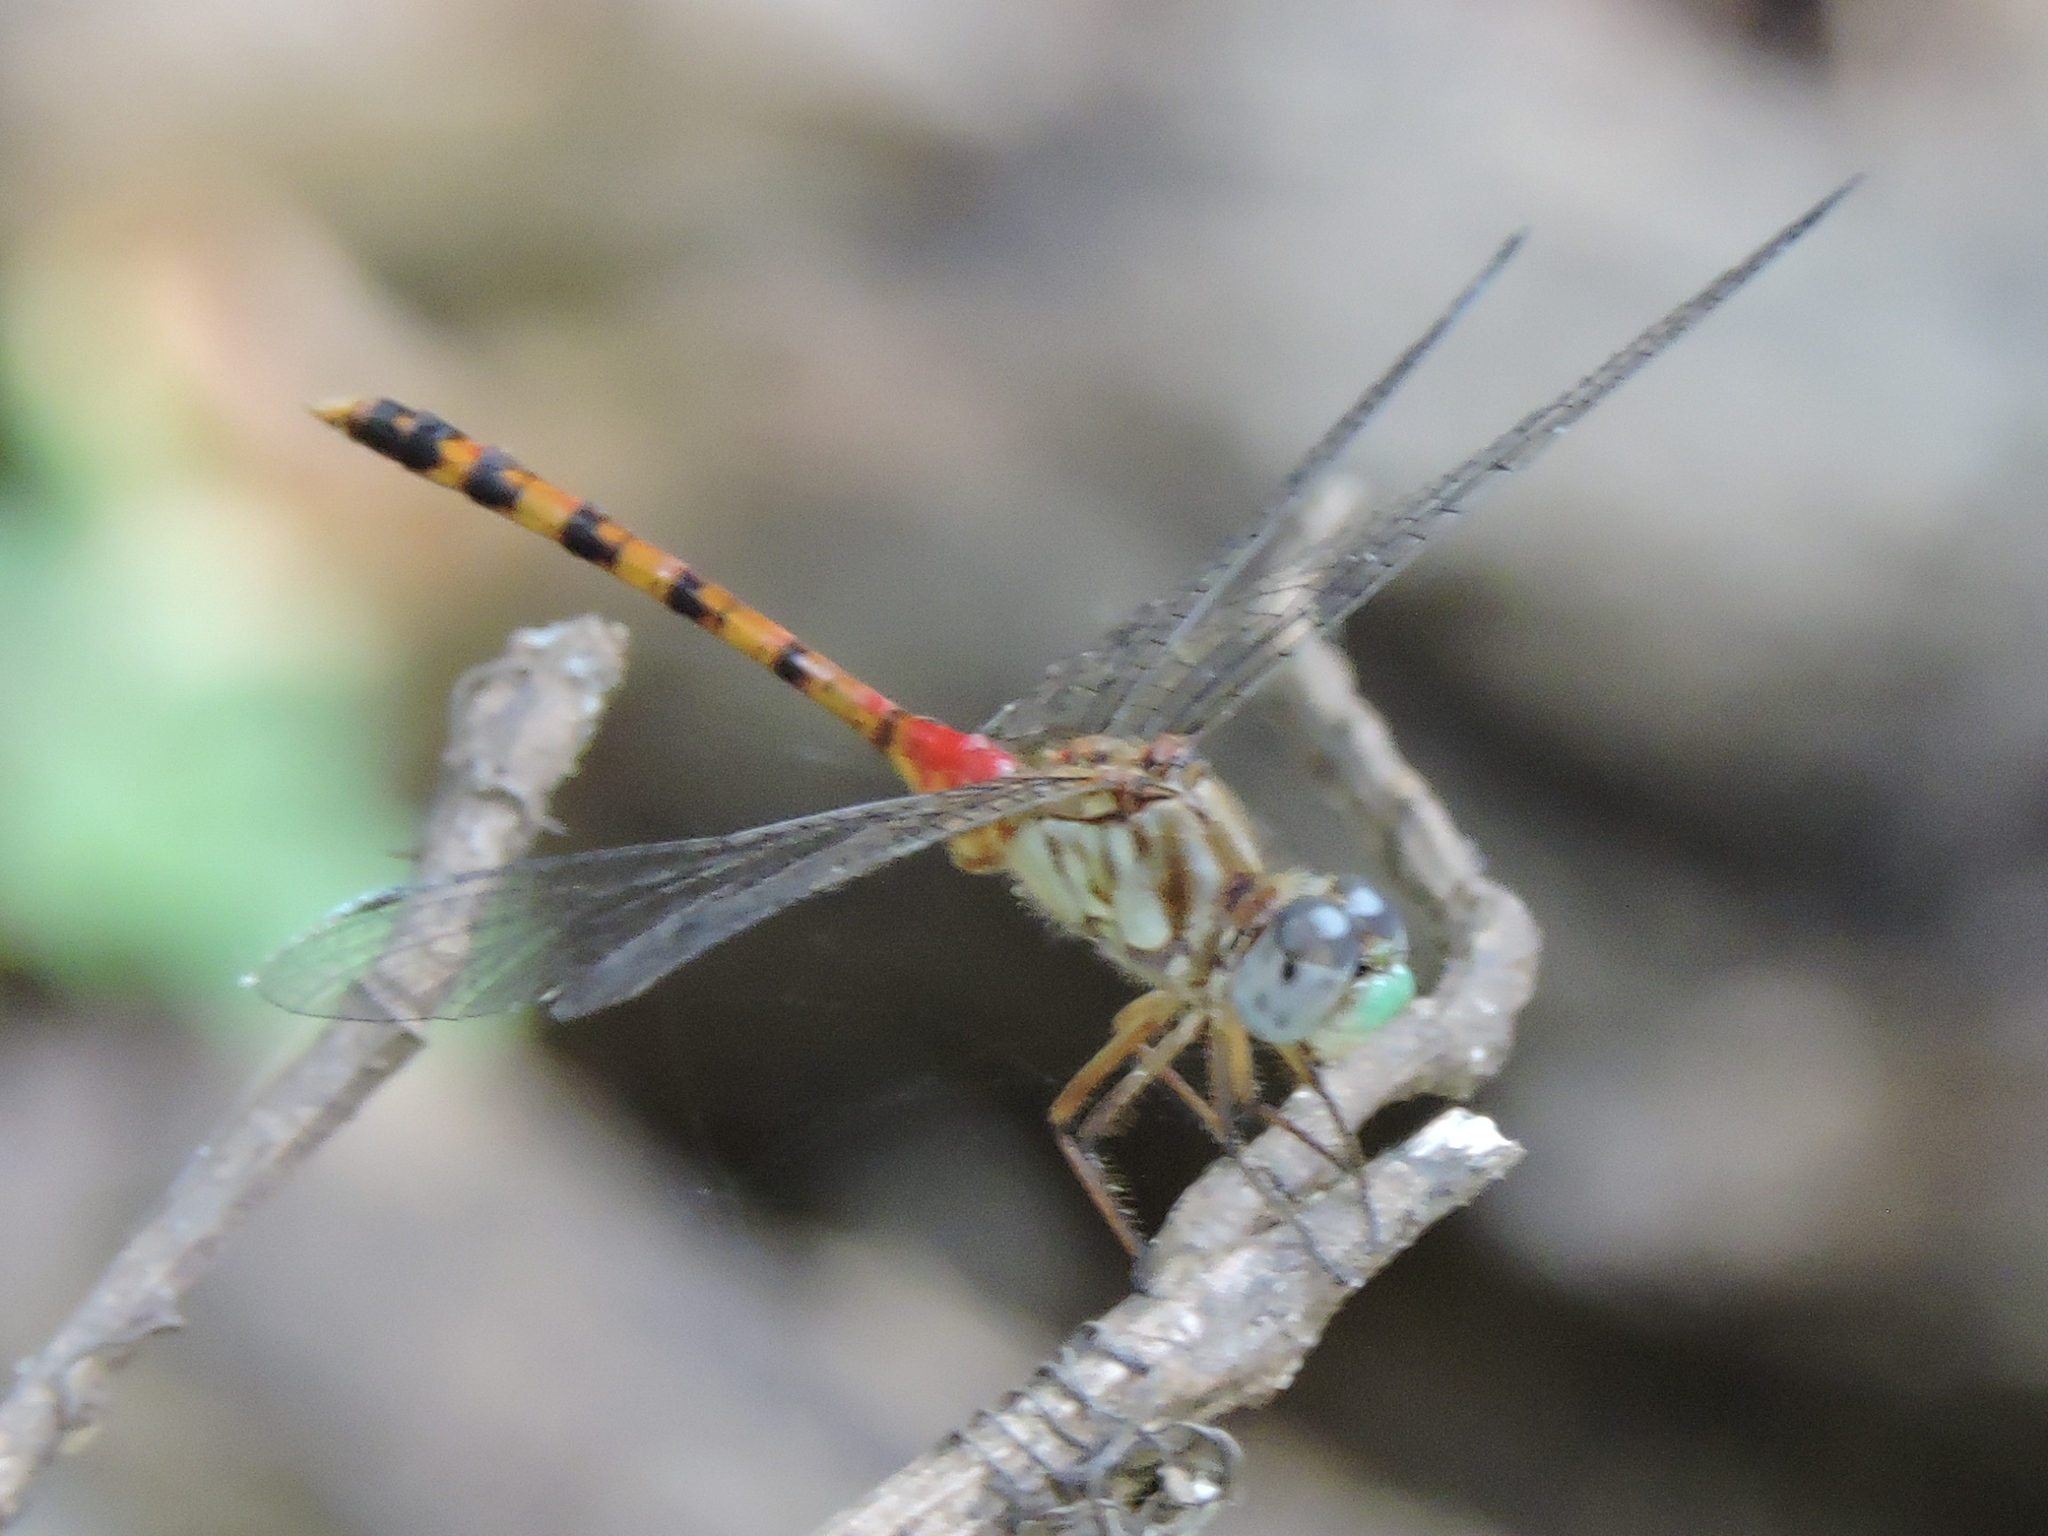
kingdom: Animalia
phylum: Arthropoda
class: Insecta
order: Odonata
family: Libellulidae
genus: Sympetrum
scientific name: Sympetrum ambiguum
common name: Blue-faced meadowhawk
